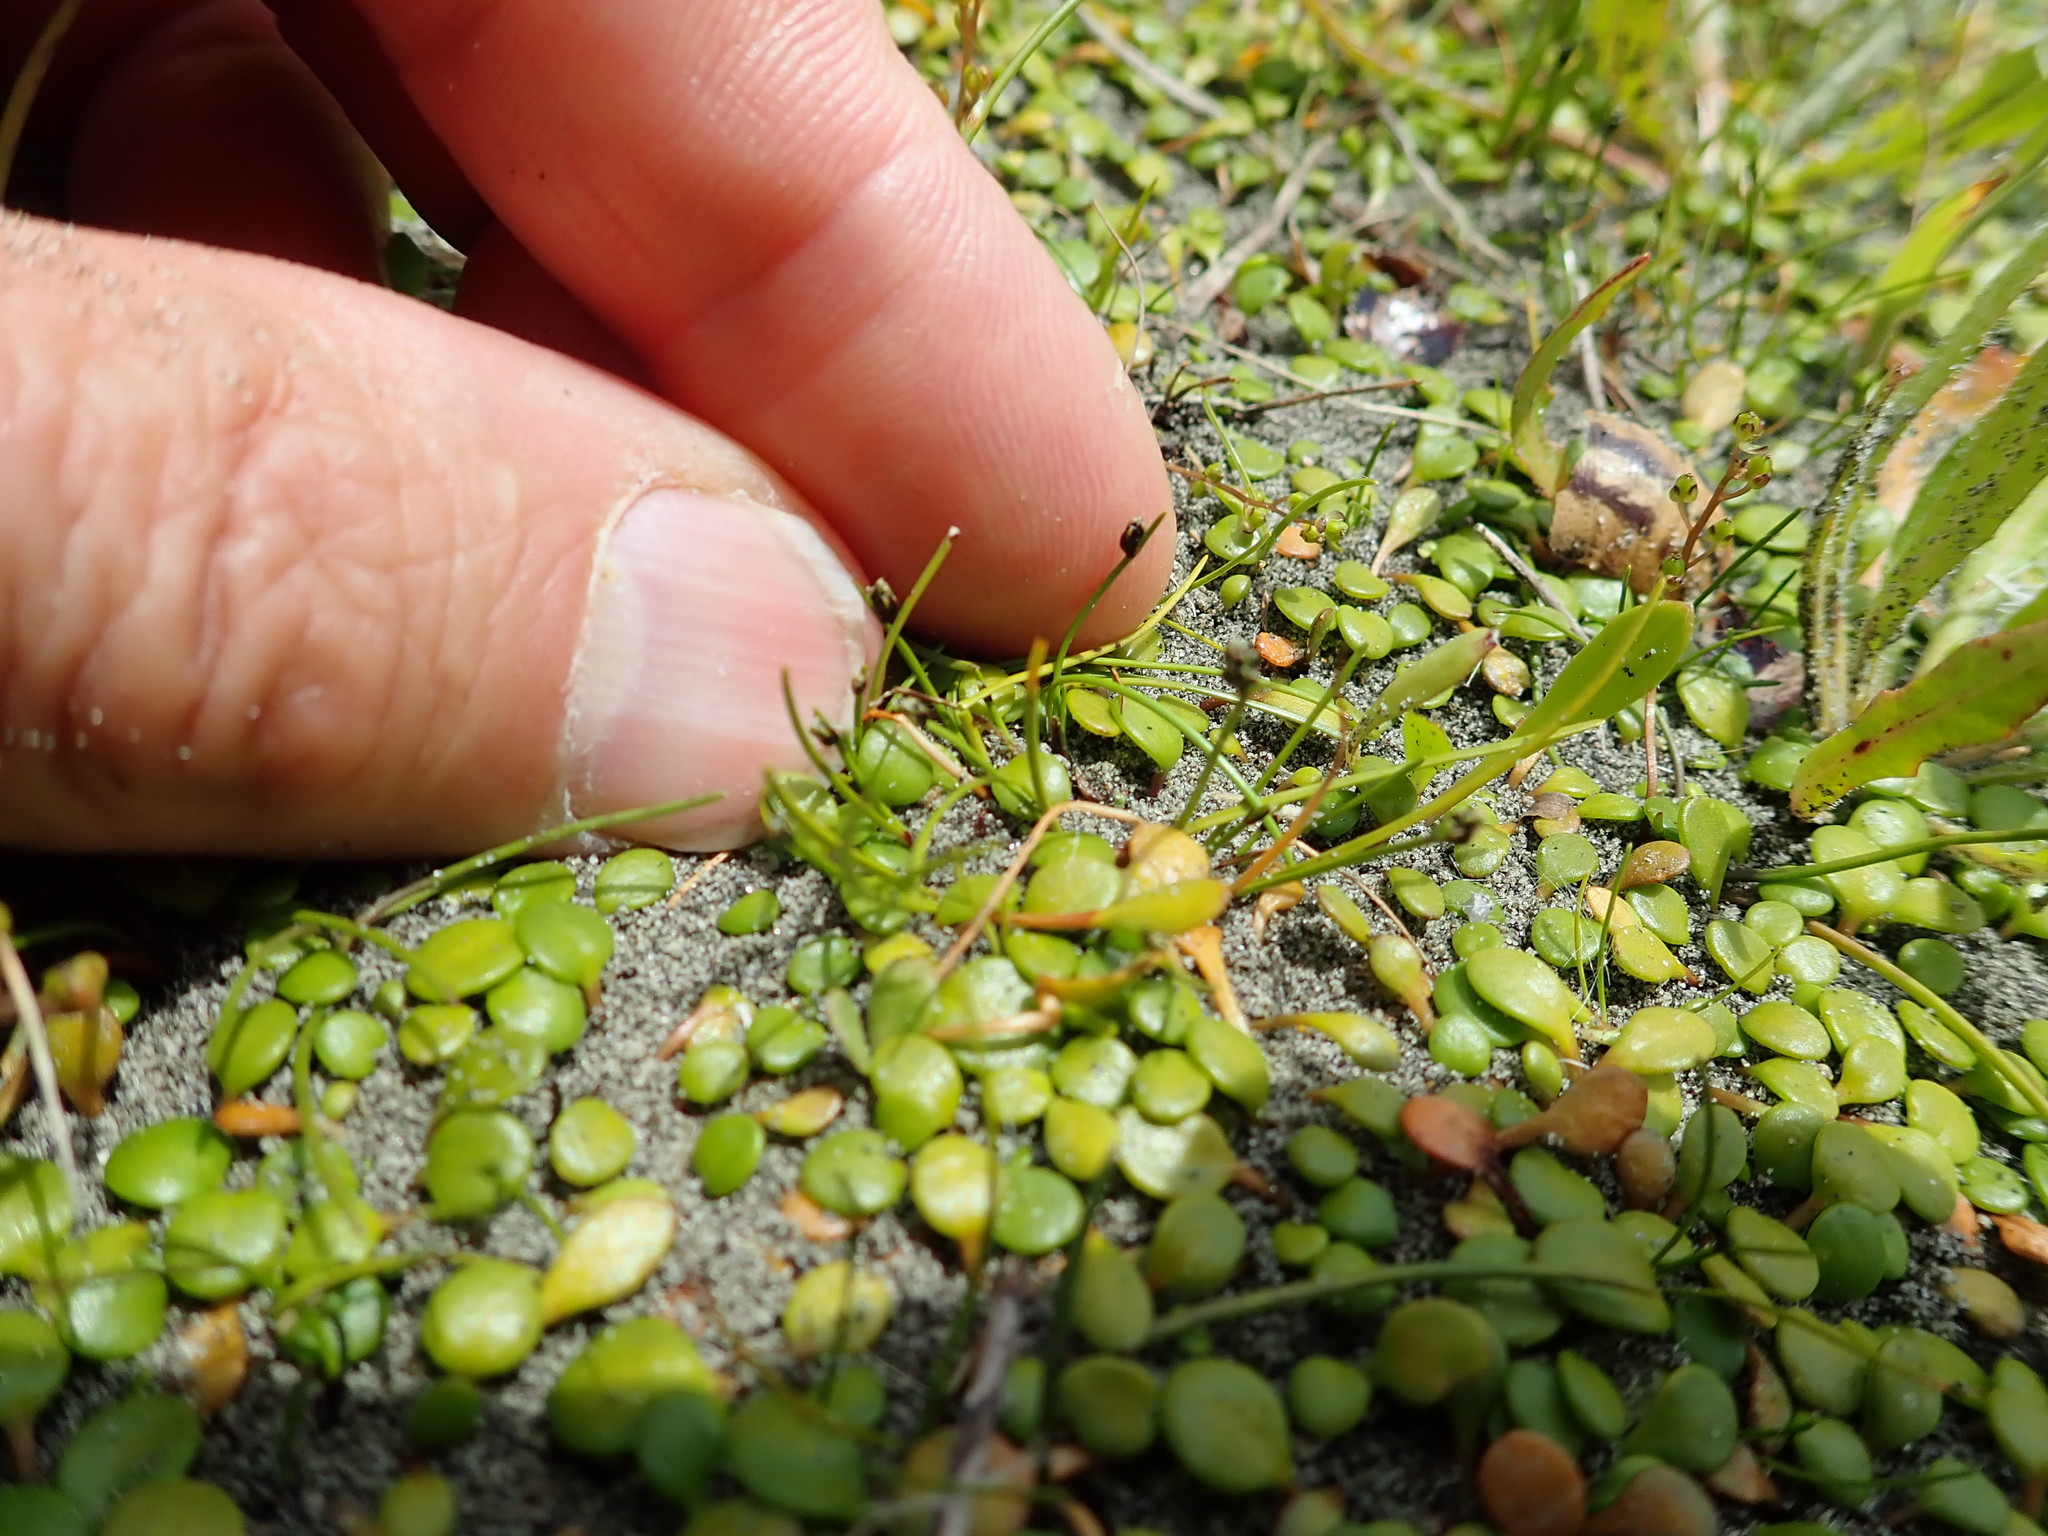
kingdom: Plantae
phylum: Tracheophyta
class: Magnoliopsida
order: Asterales
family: Goodeniaceae
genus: Goodenia
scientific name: Goodenia heenanii
